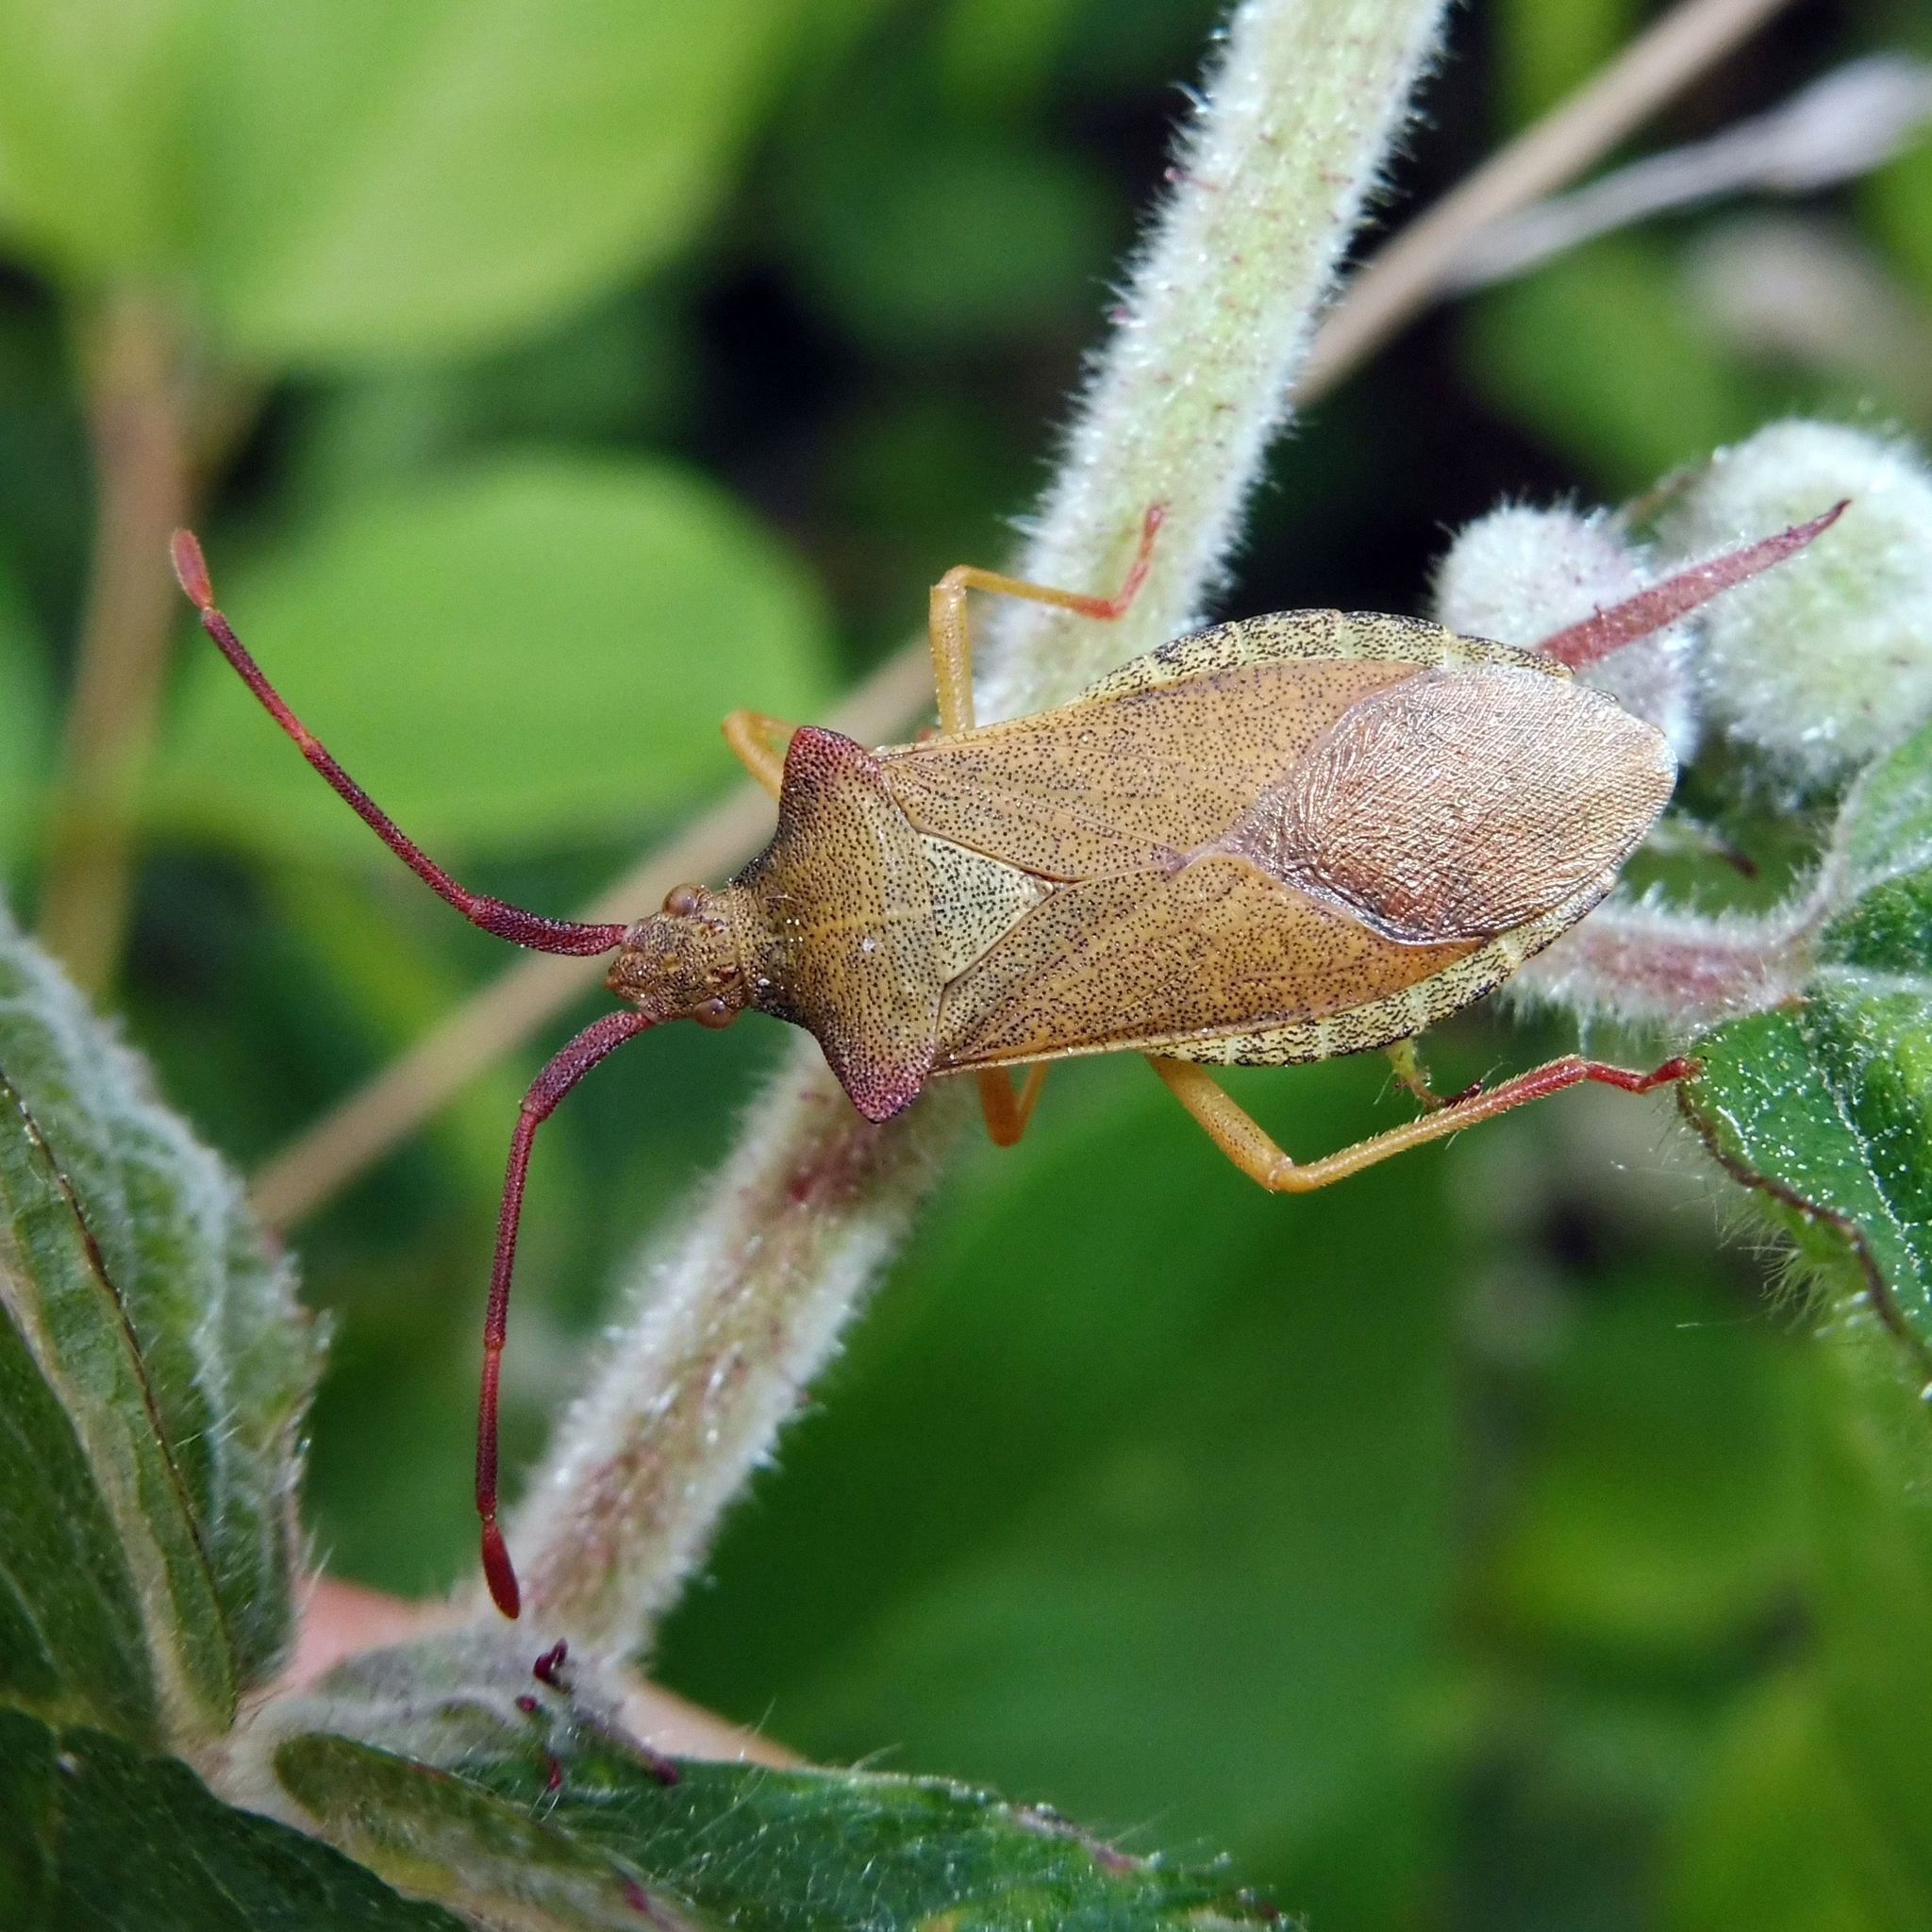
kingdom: Animalia
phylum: Arthropoda
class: Insecta
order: Hemiptera
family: Coreidae
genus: Gonocerus
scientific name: Gonocerus acuteangulatus
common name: Box bug
